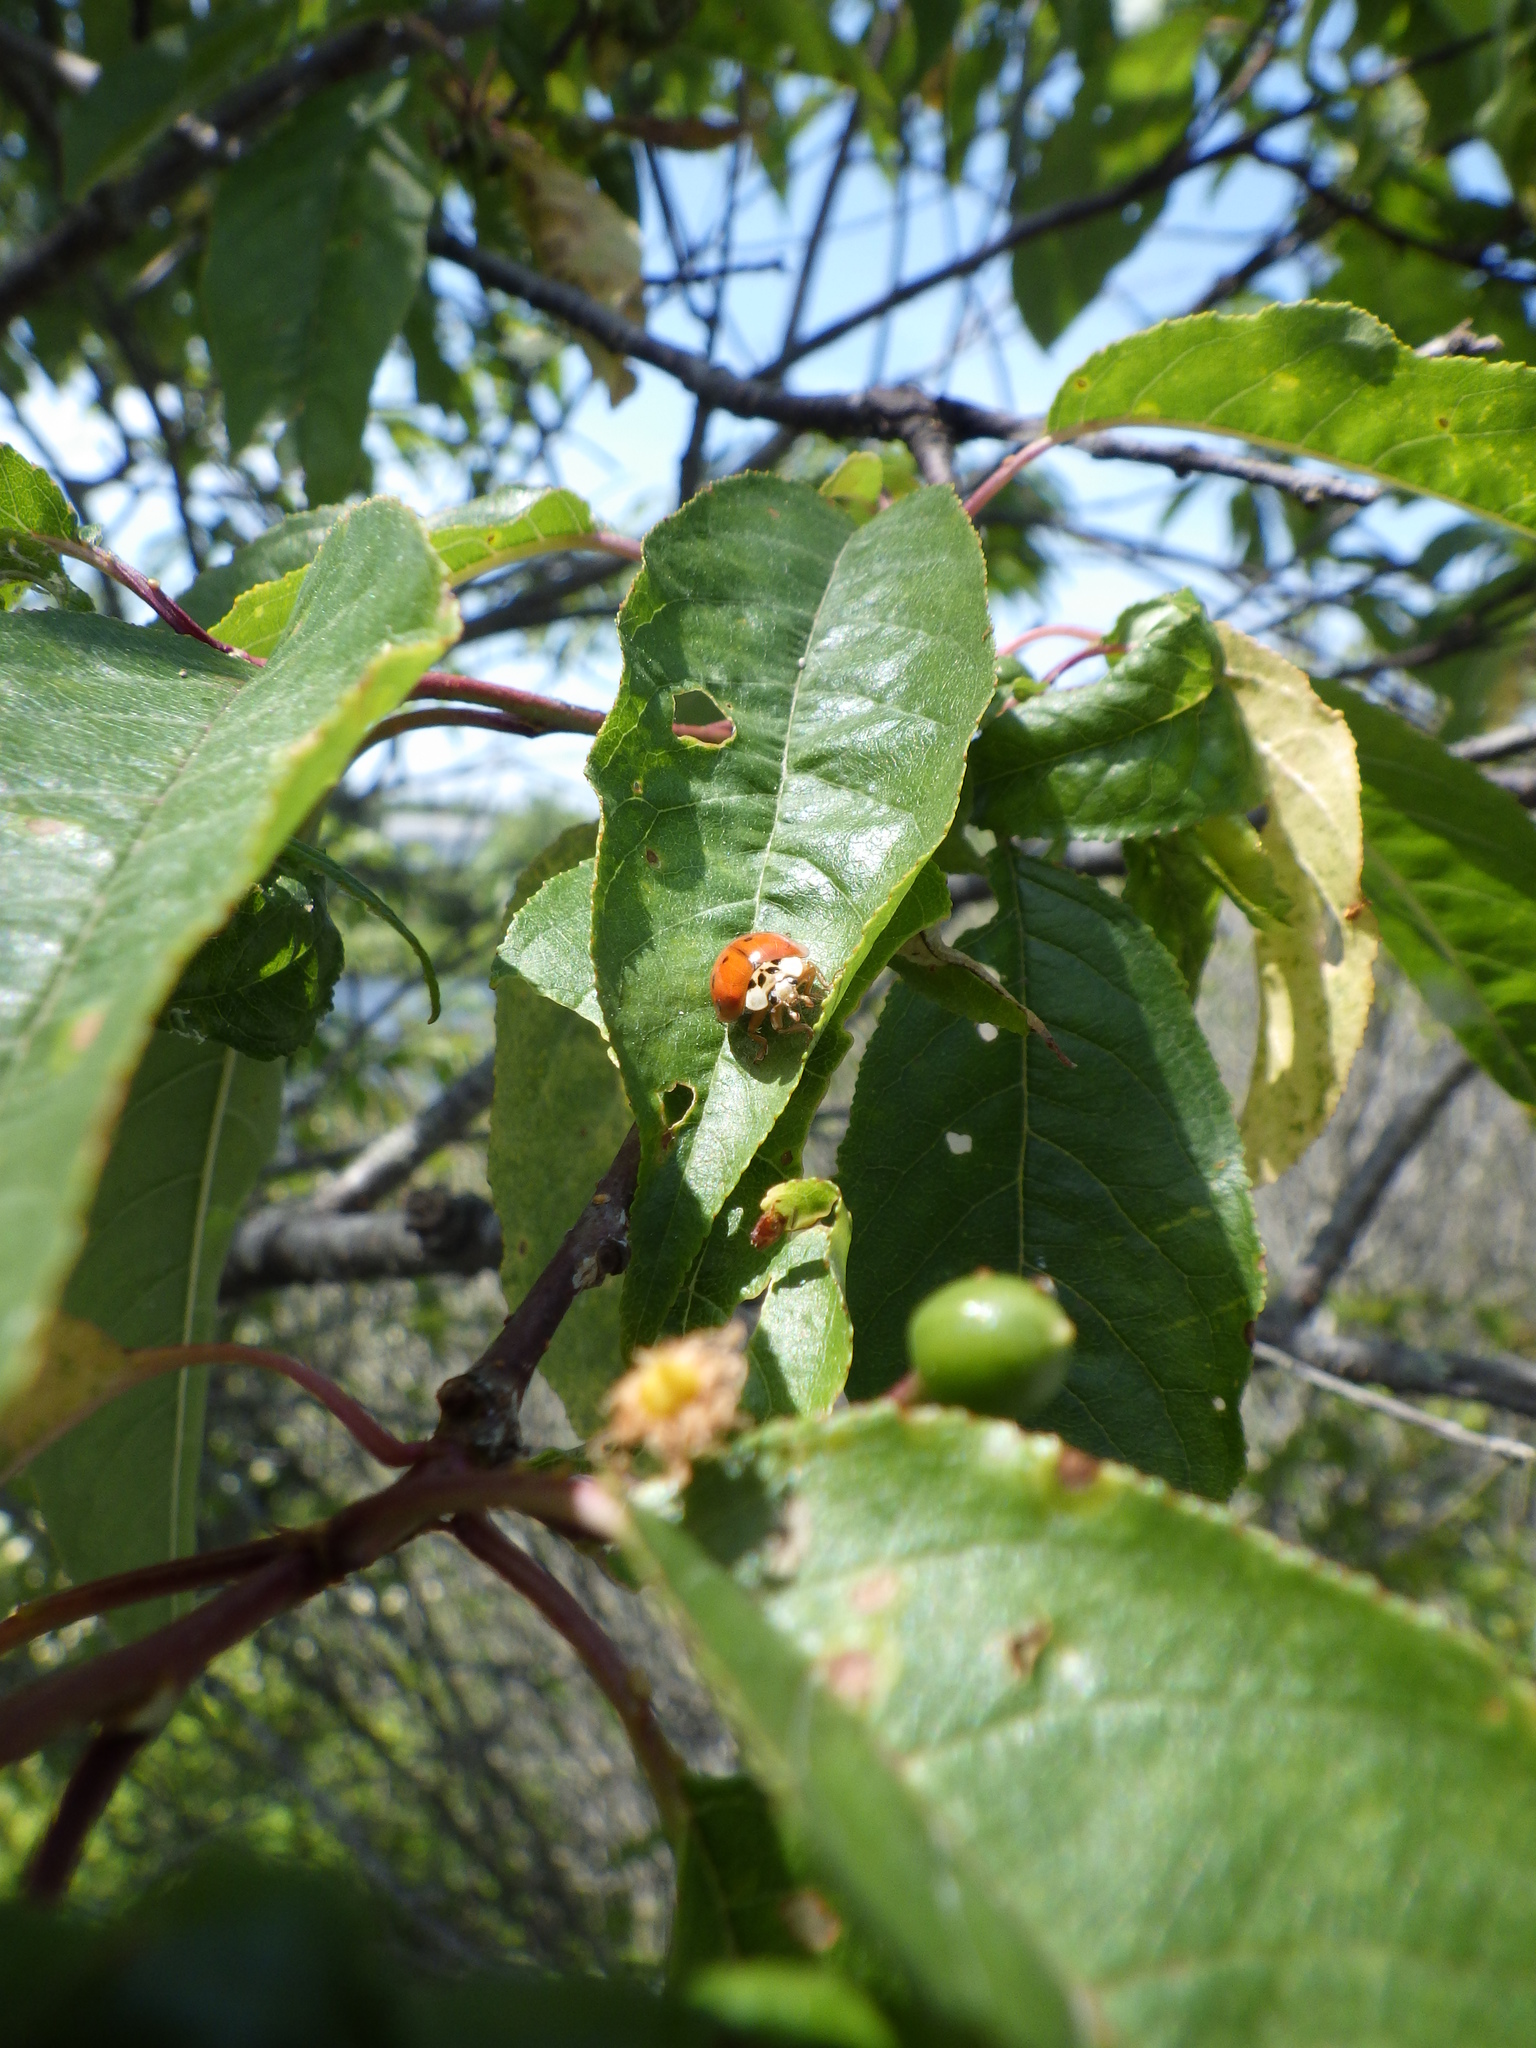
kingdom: Animalia
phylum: Arthropoda
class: Insecta
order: Coleoptera
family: Coccinellidae
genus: Harmonia
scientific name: Harmonia axyridis
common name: Harlequin ladybird
